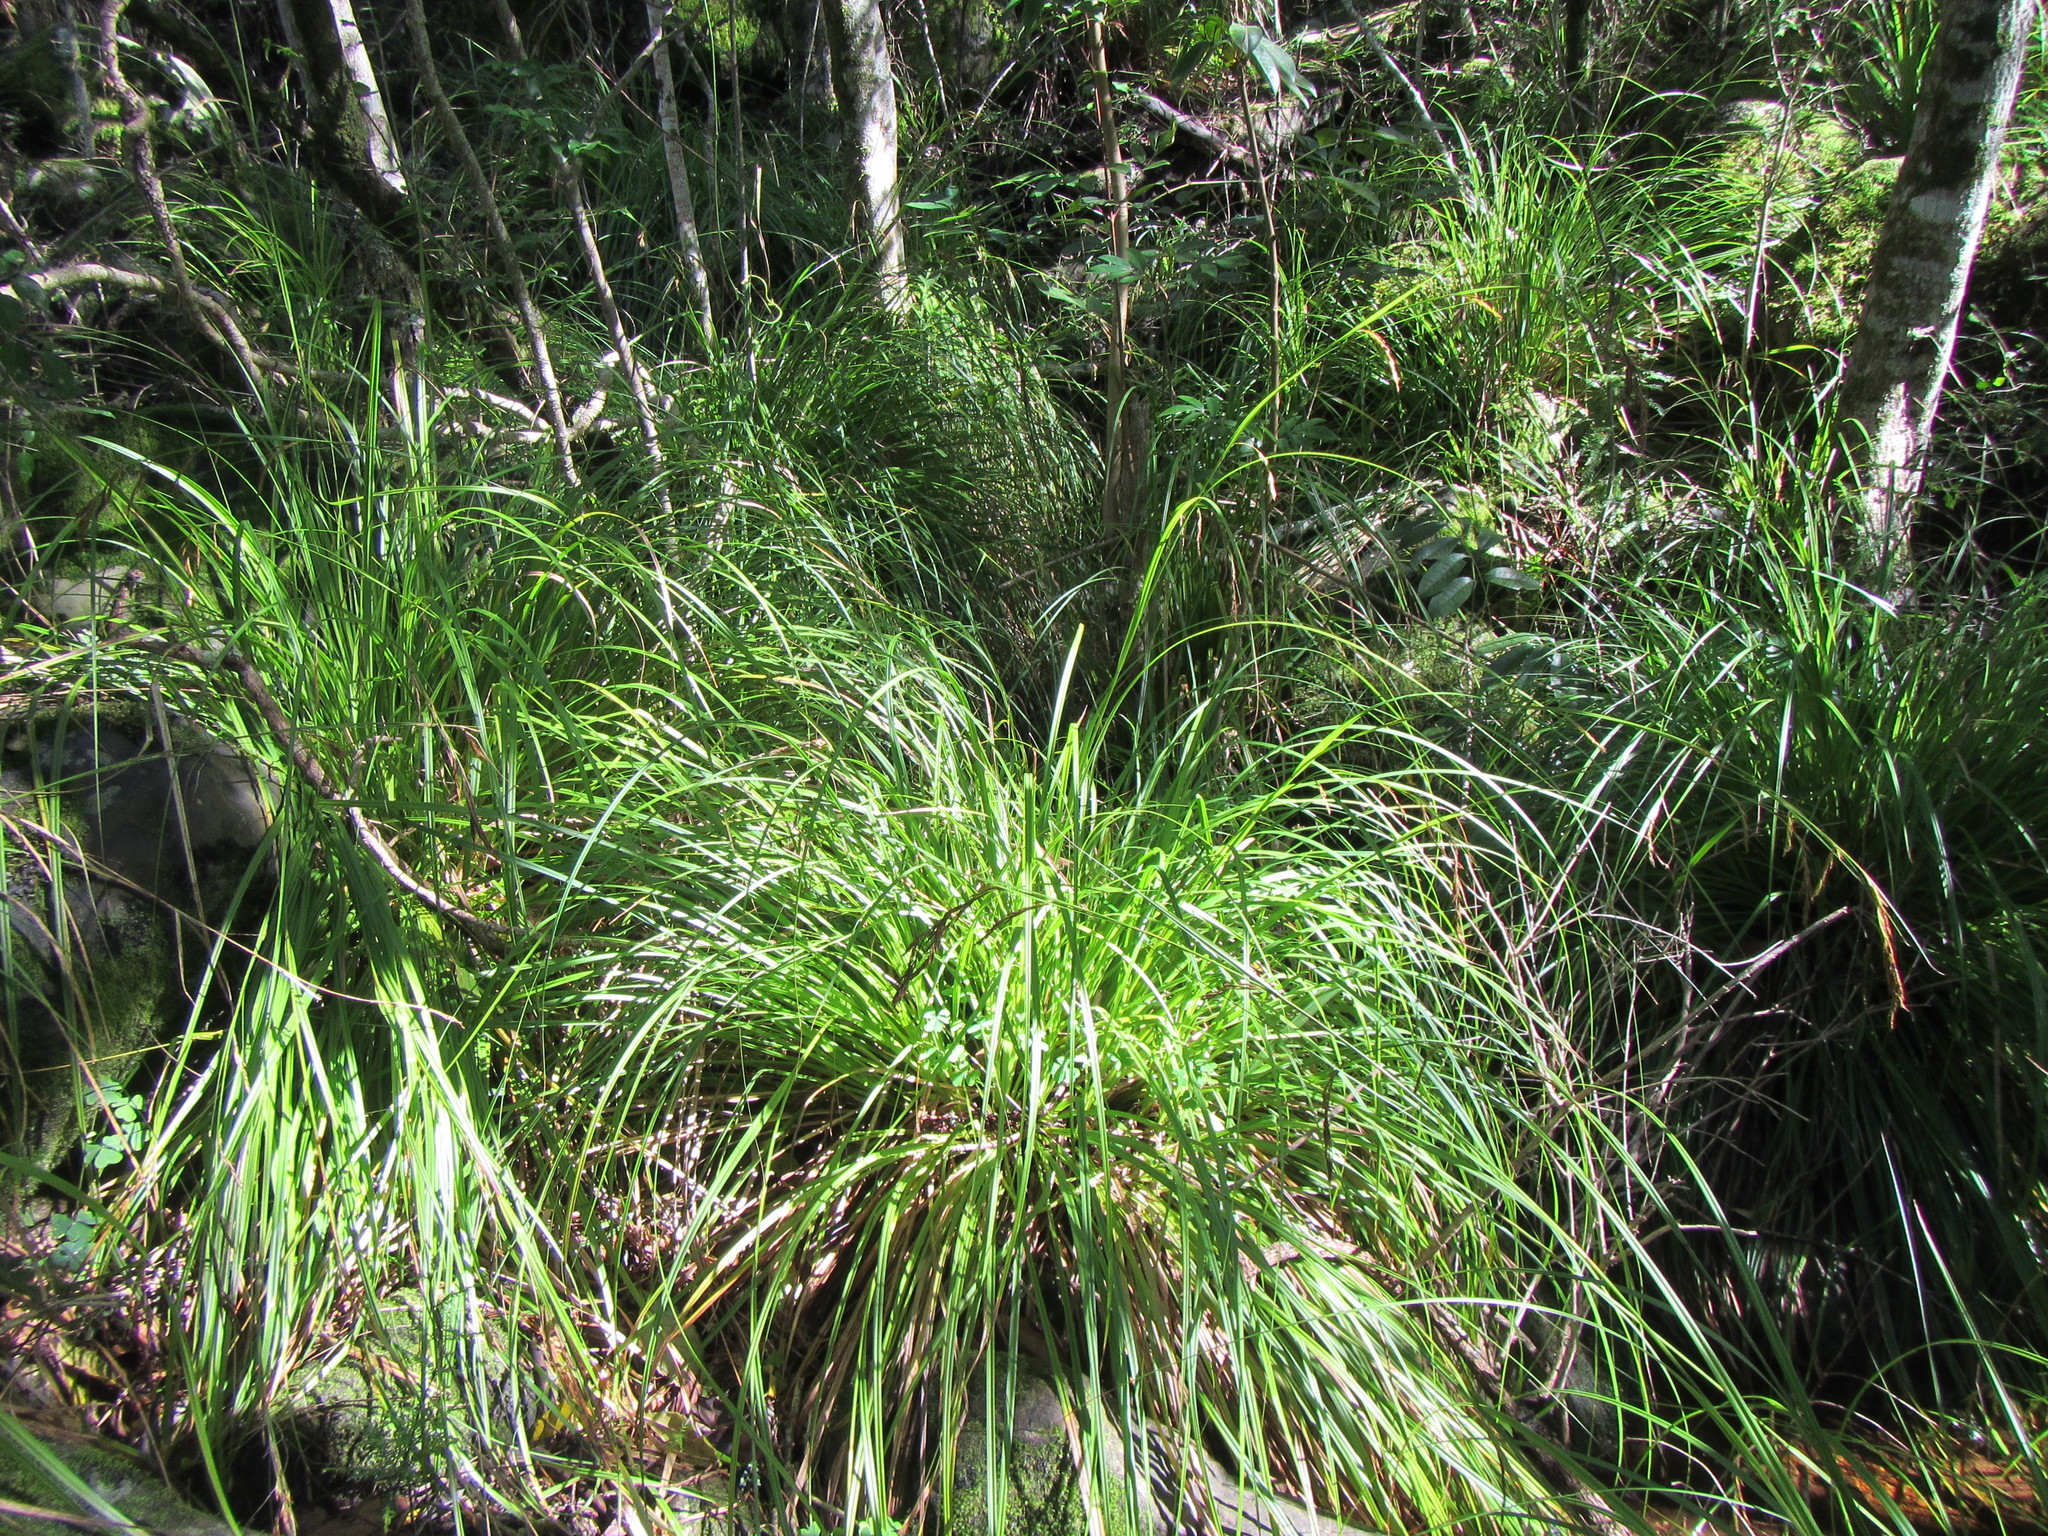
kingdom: Plantae
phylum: Tracheophyta
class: Liliopsida
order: Poales
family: Cyperaceae
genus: Carex
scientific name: Carex lancea
